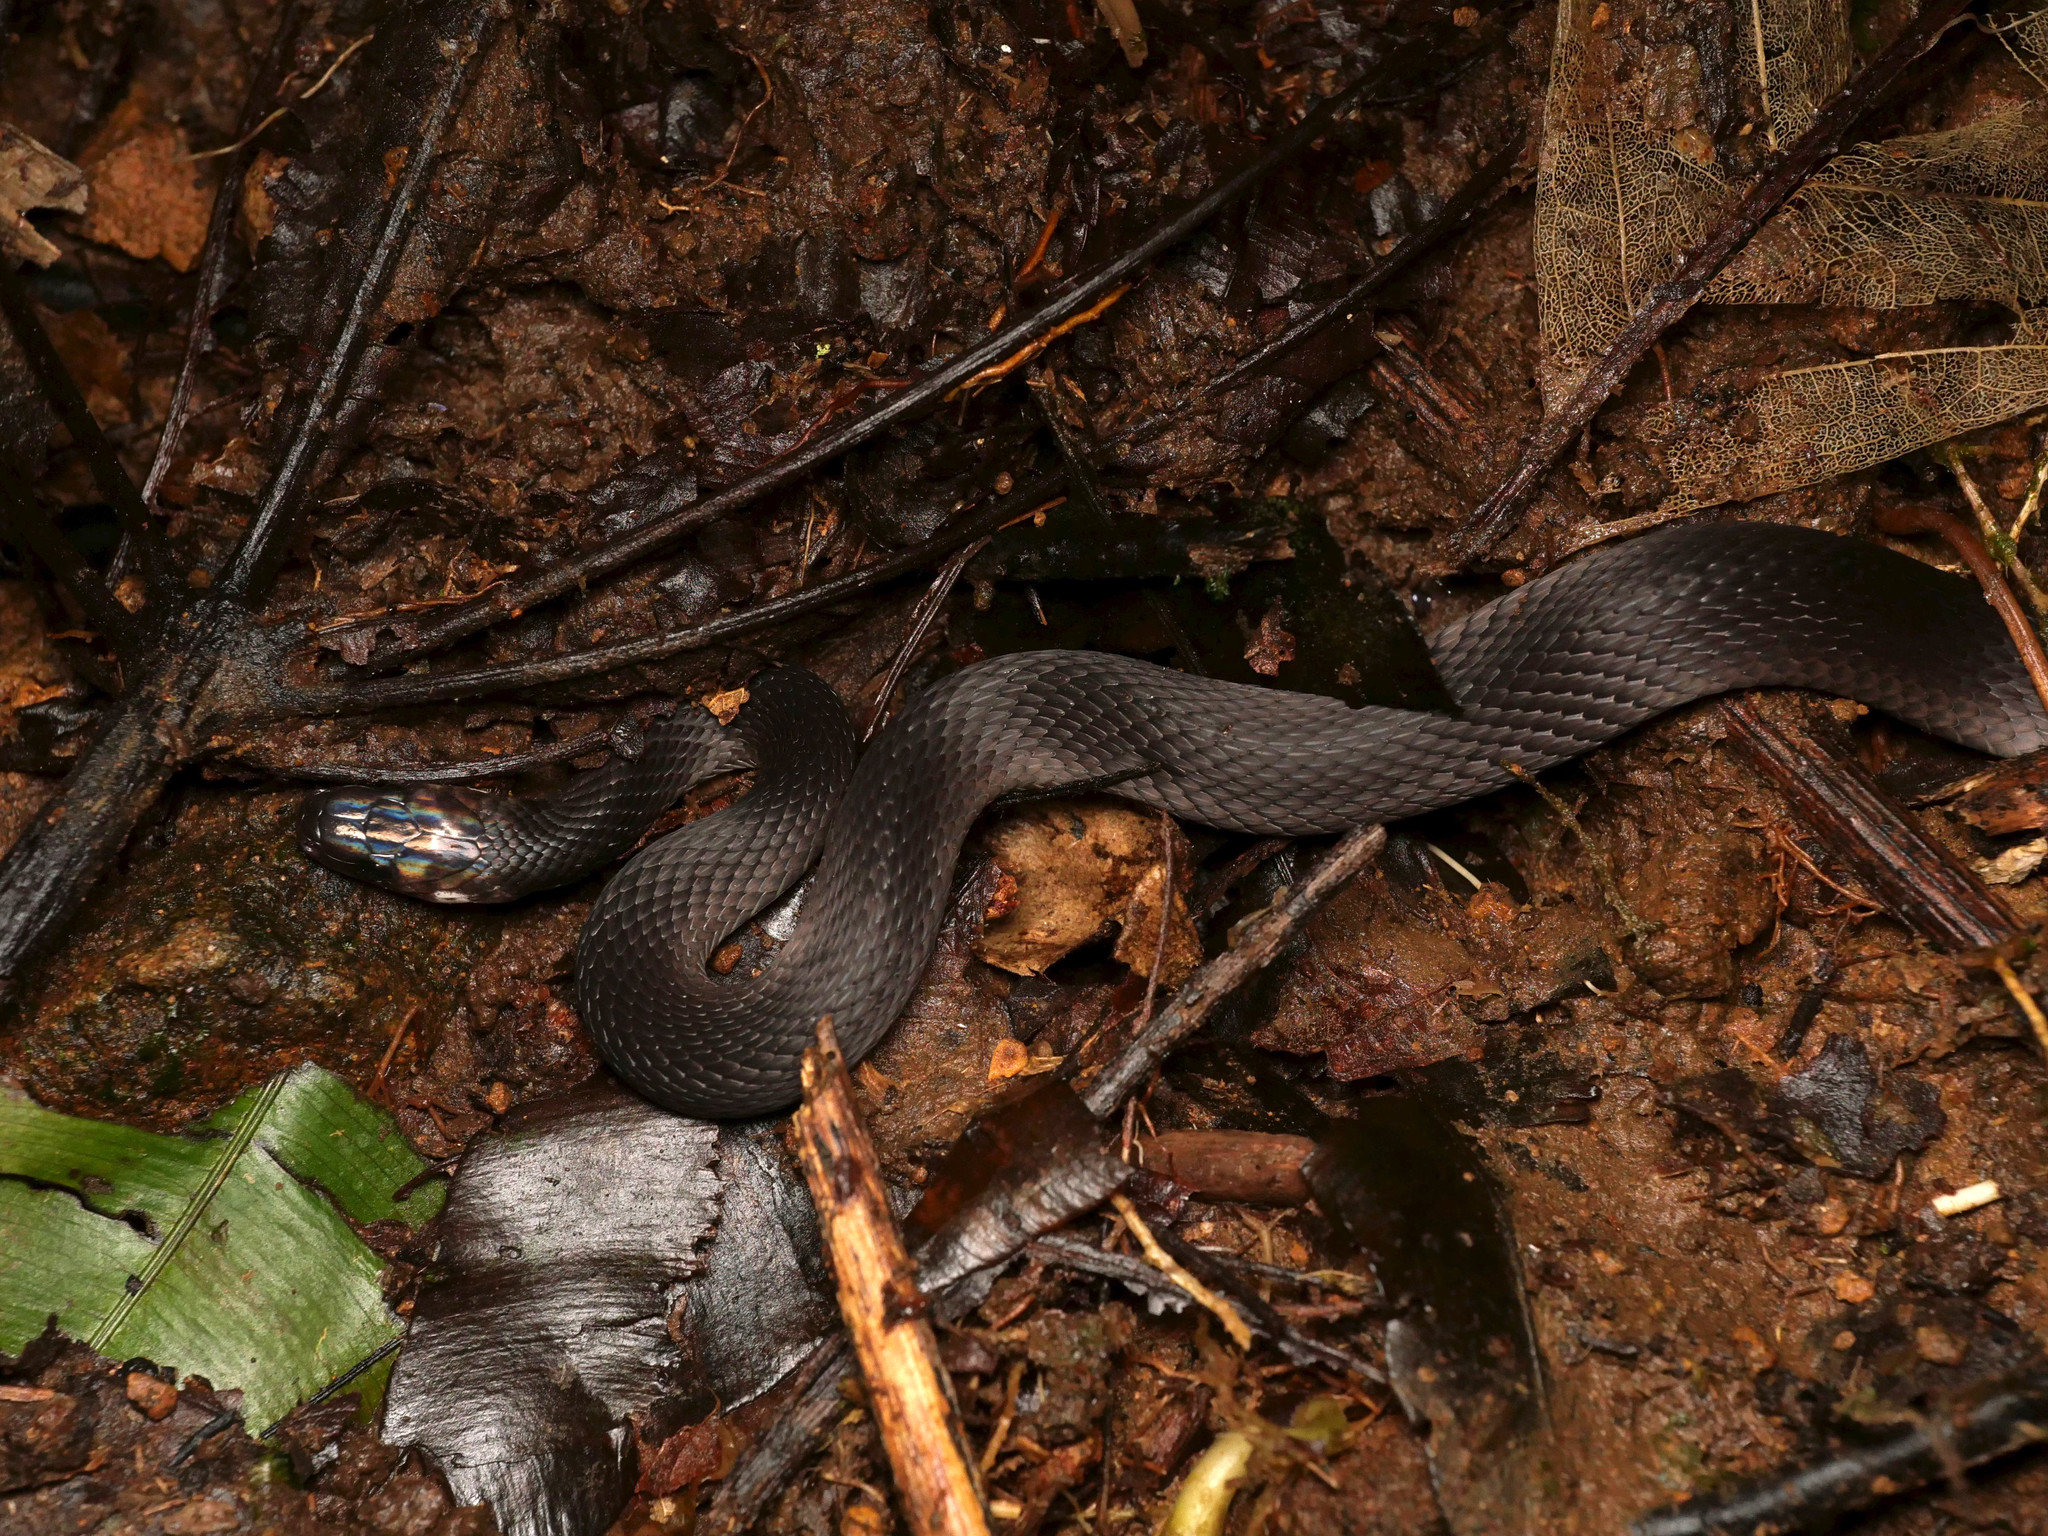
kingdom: Animalia
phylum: Chordata
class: Squamata
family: Colubridae
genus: Ninia
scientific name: Ninia teresitae
